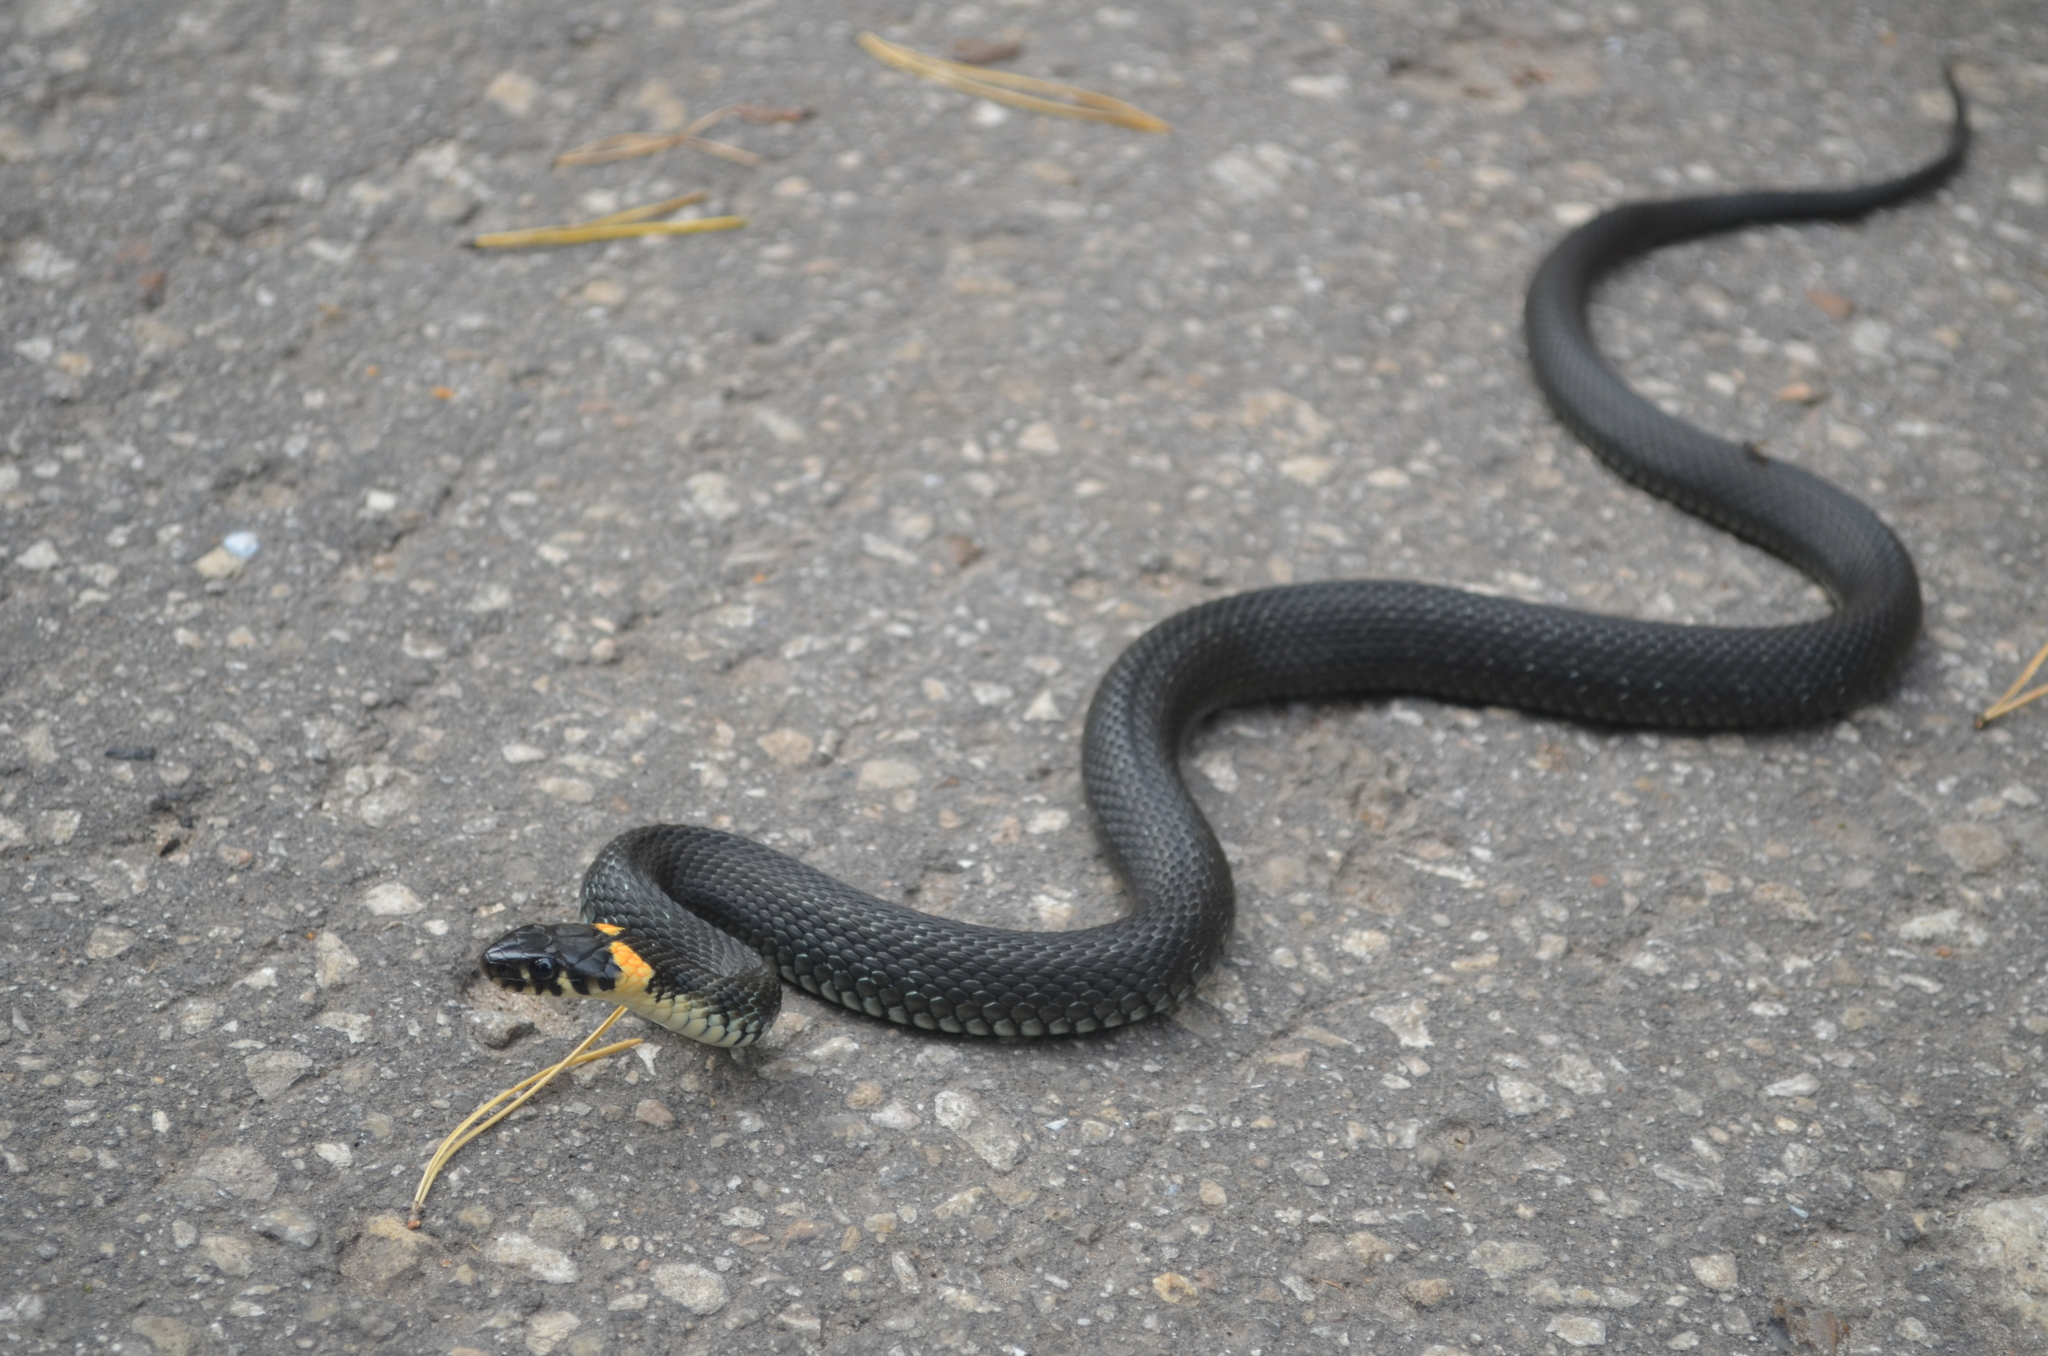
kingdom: Animalia
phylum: Chordata
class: Squamata
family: Colubridae
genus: Natrix
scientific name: Natrix natrix
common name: Grass snake
